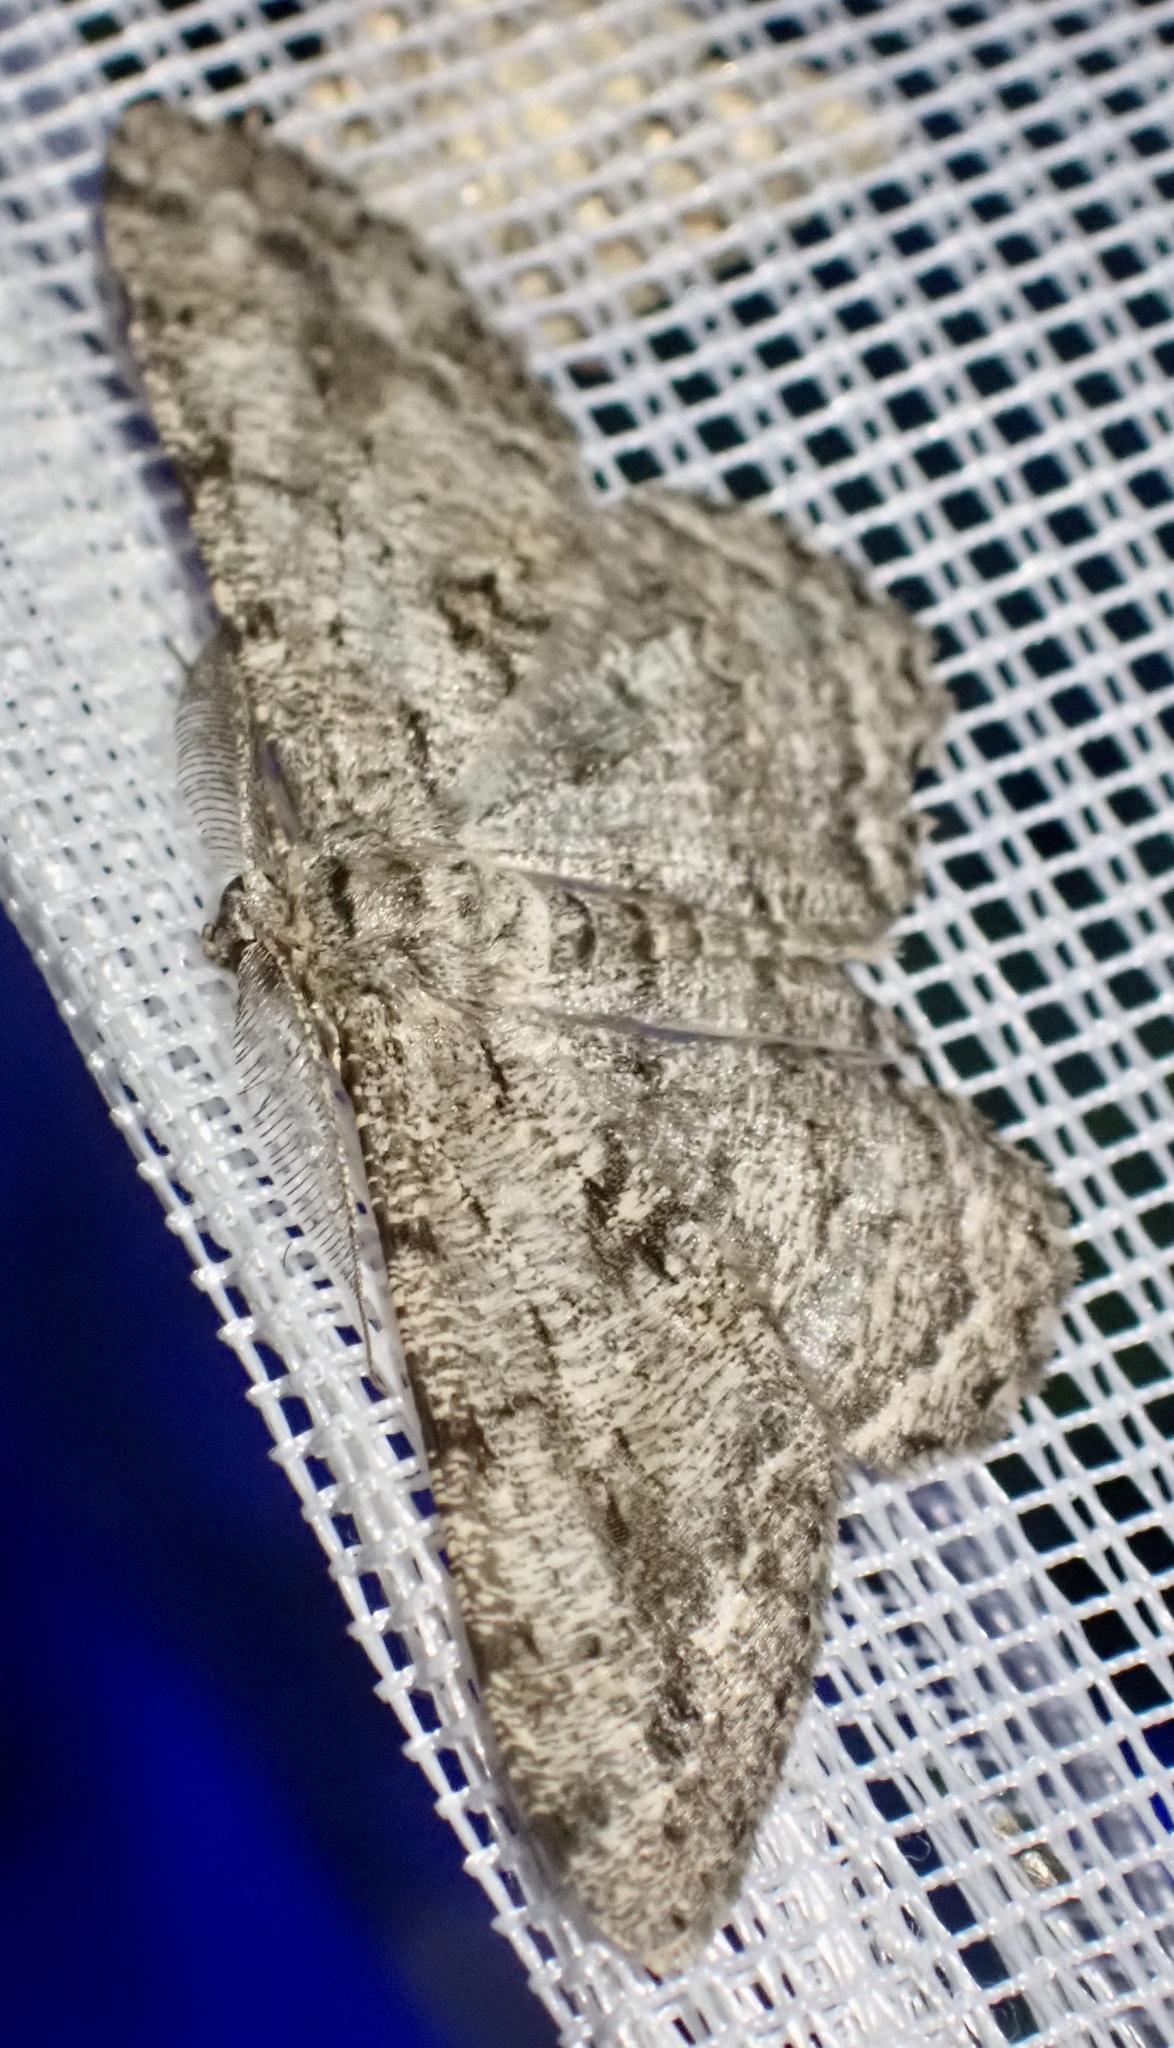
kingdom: Animalia
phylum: Arthropoda
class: Insecta
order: Lepidoptera
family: Geometridae
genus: Hypomecis
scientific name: Hypomecis roboraria
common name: Great oak beauty
